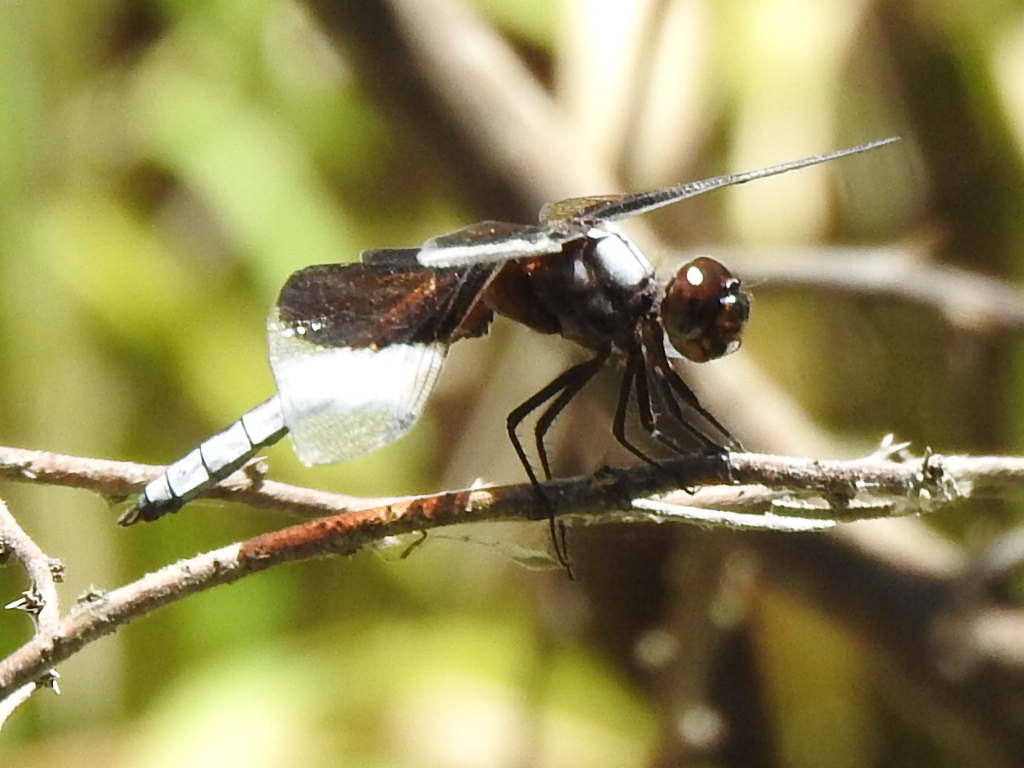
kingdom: Animalia
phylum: Arthropoda
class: Insecta
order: Odonata
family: Libellulidae
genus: Libellula
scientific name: Libellula luctuosa
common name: Widow skimmer
